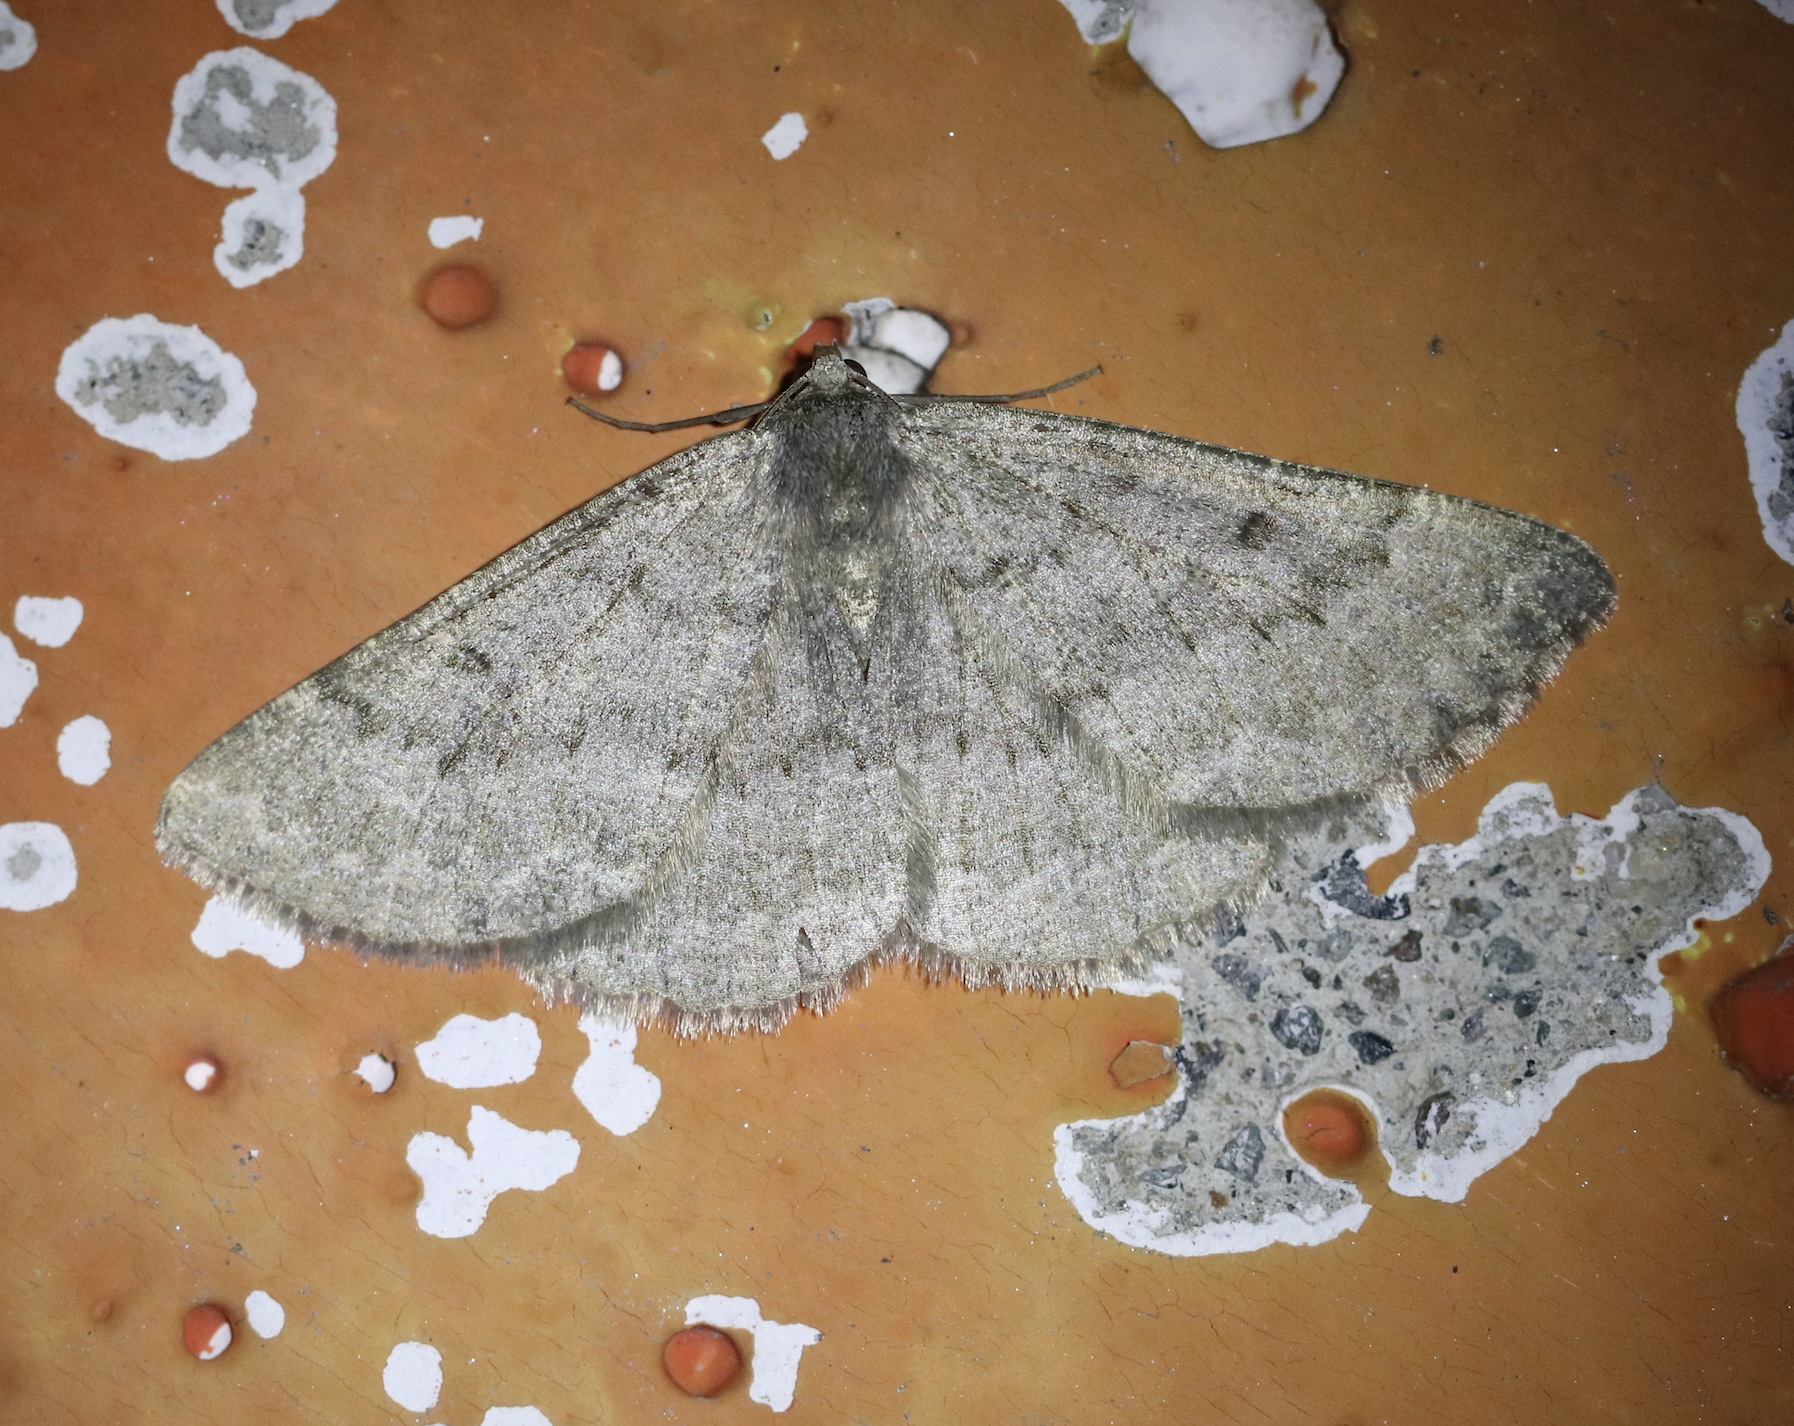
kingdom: Animalia
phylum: Arthropoda
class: Insecta
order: Lepidoptera
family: Geometridae
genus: Gnophos
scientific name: Gnophos obfuscata
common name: Scottish annulet
